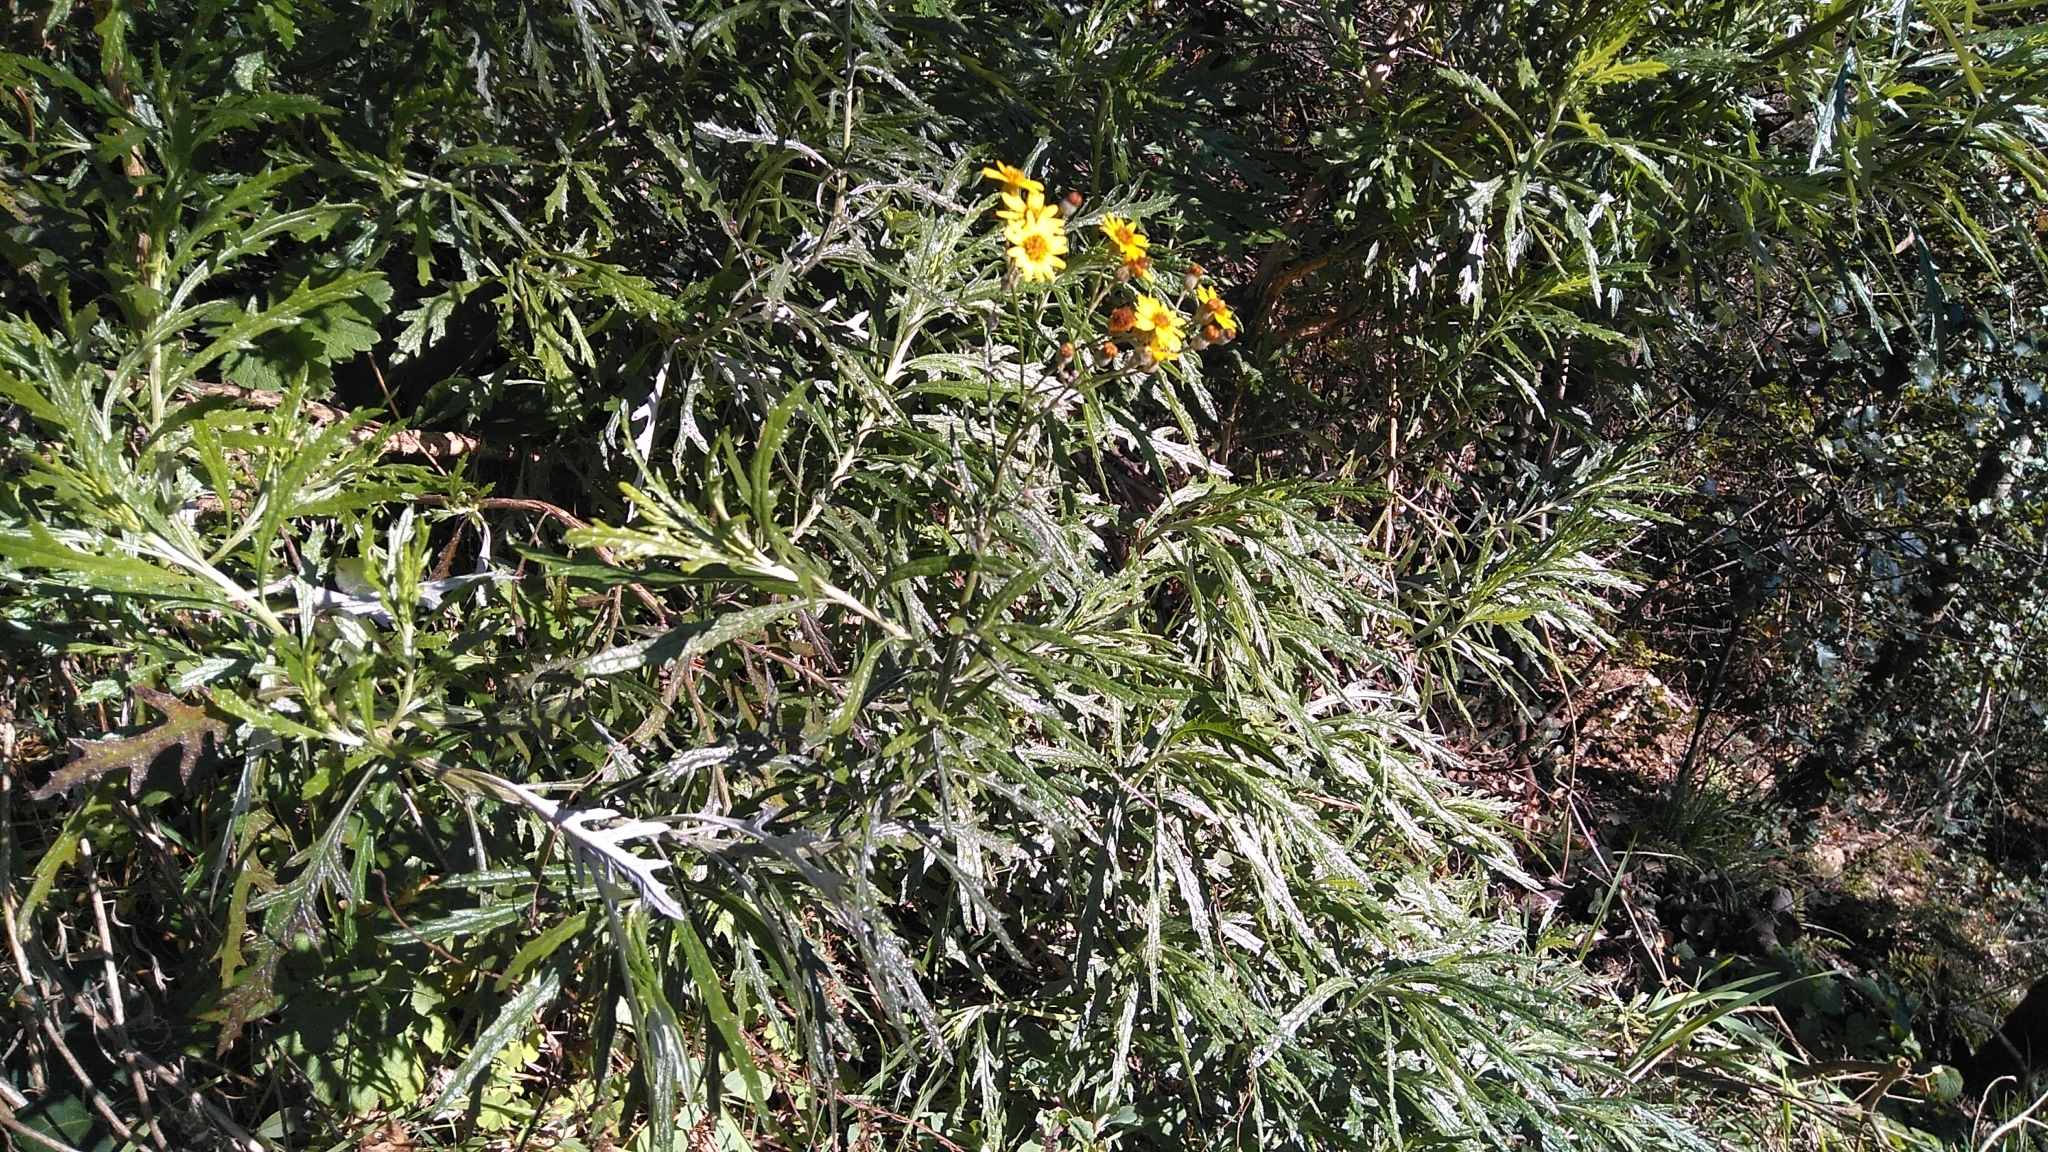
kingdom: Plantae
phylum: Tracheophyta
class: Magnoliopsida
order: Asterales
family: Asteraceae
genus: Senecio
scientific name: Senecio pterophorus
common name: Shoddy ragwort
